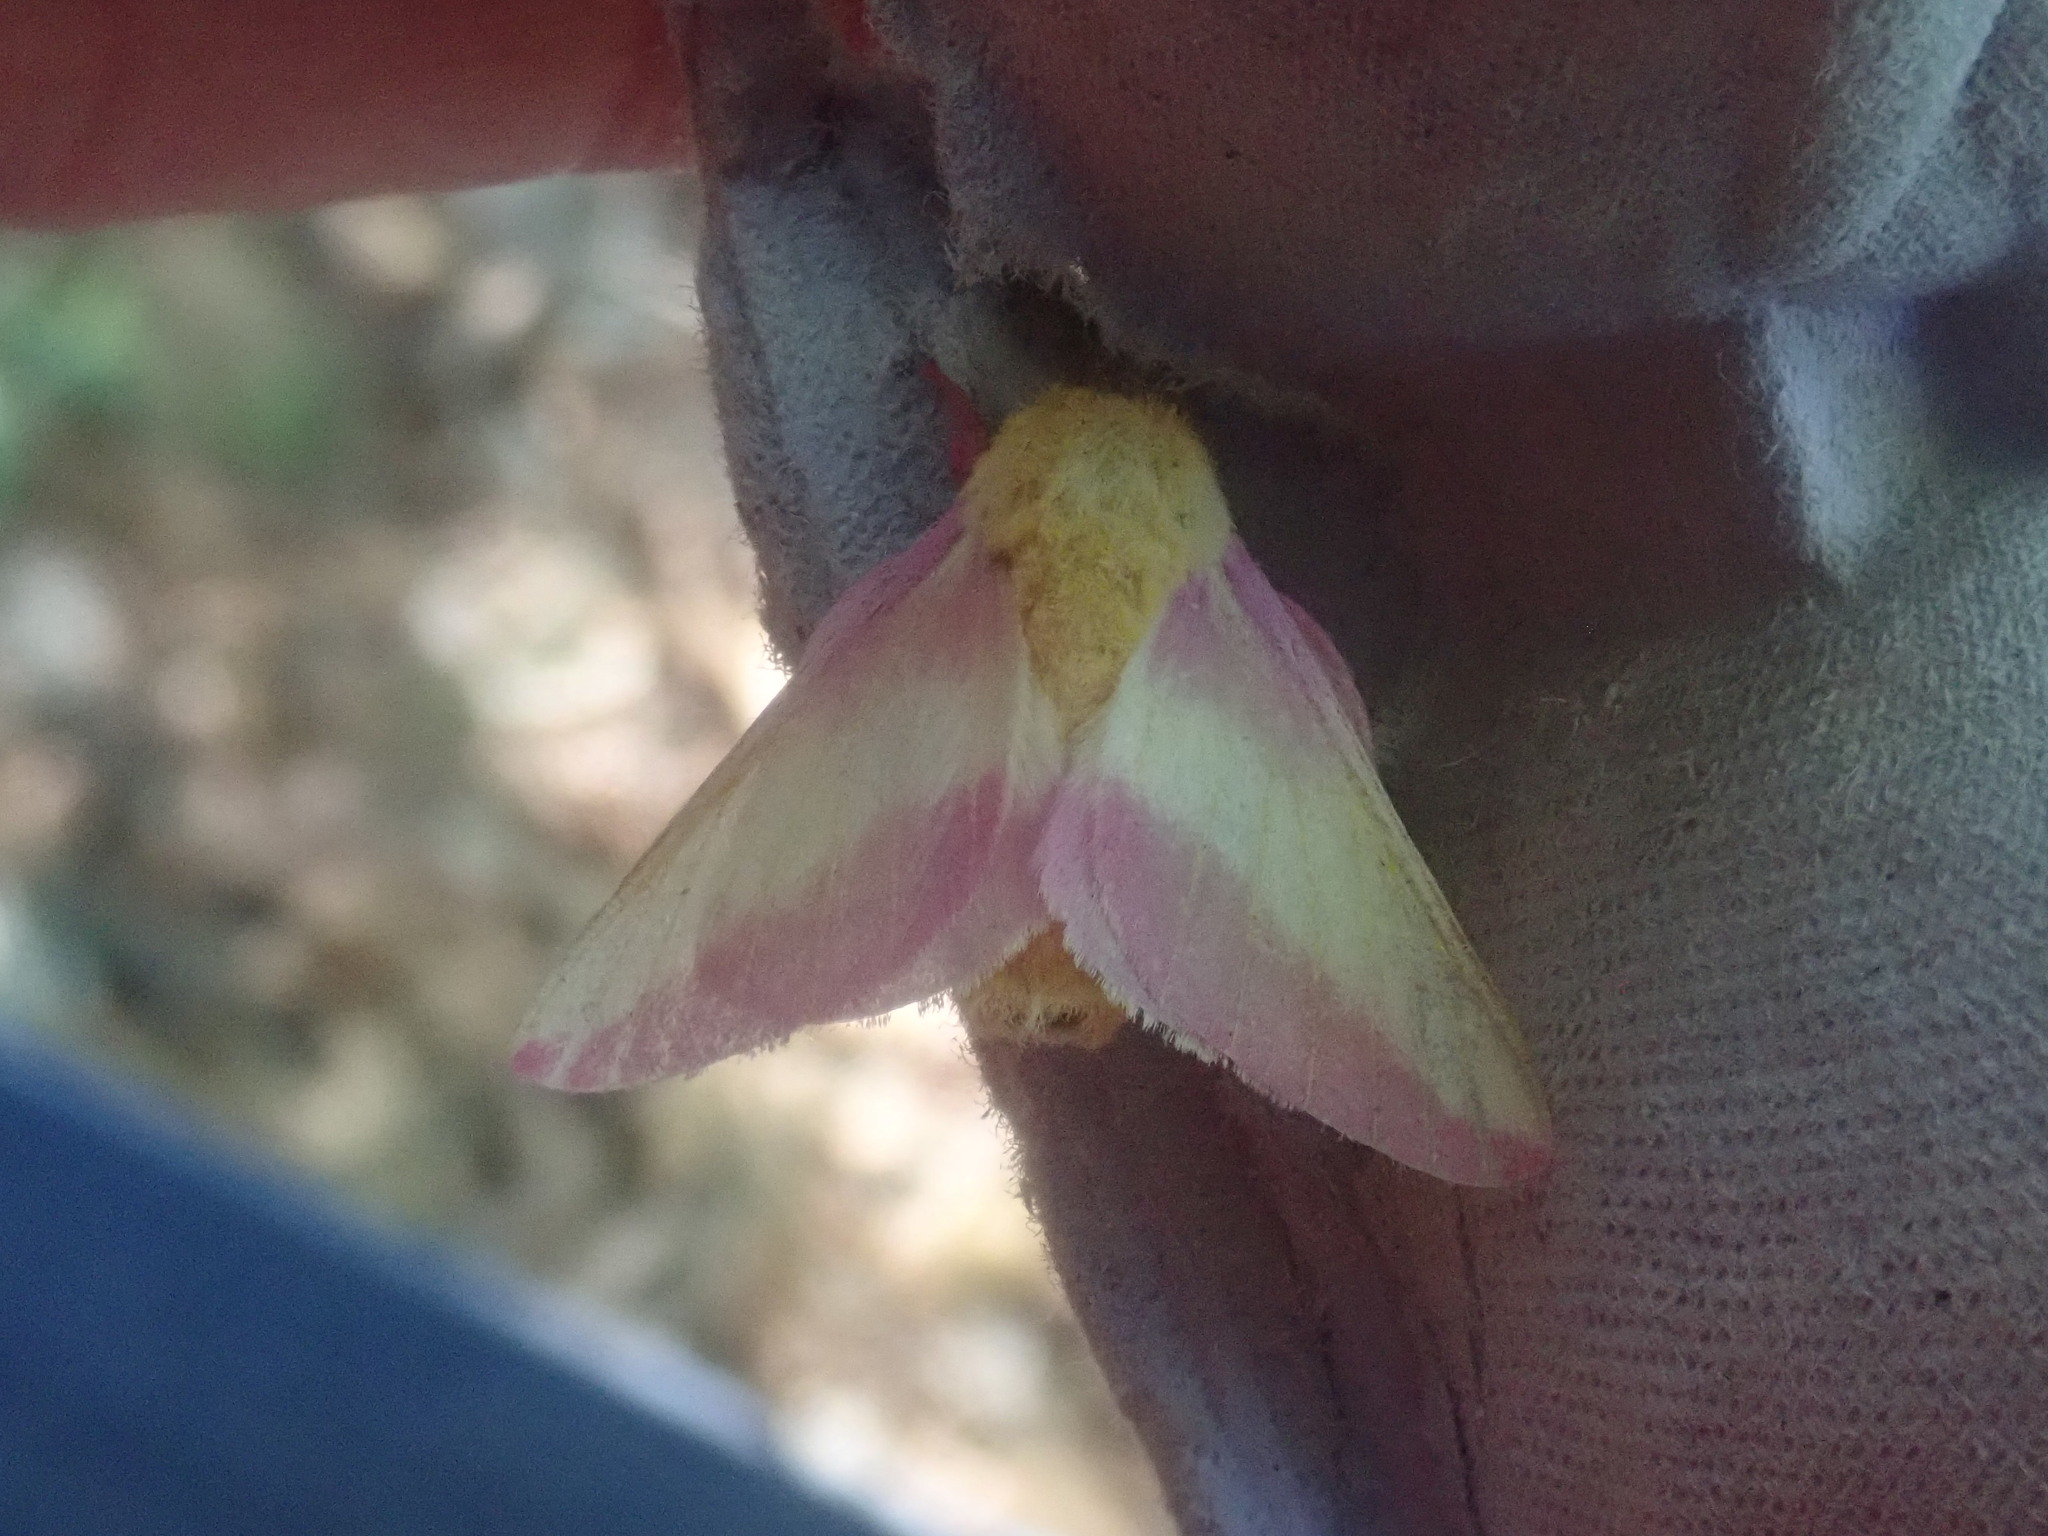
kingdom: Animalia
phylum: Arthropoda
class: Insecta
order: Lepidoptera
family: Saturniidae
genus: Dryocampa
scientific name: Dryocampa rubicunda
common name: Rosy maple moth
